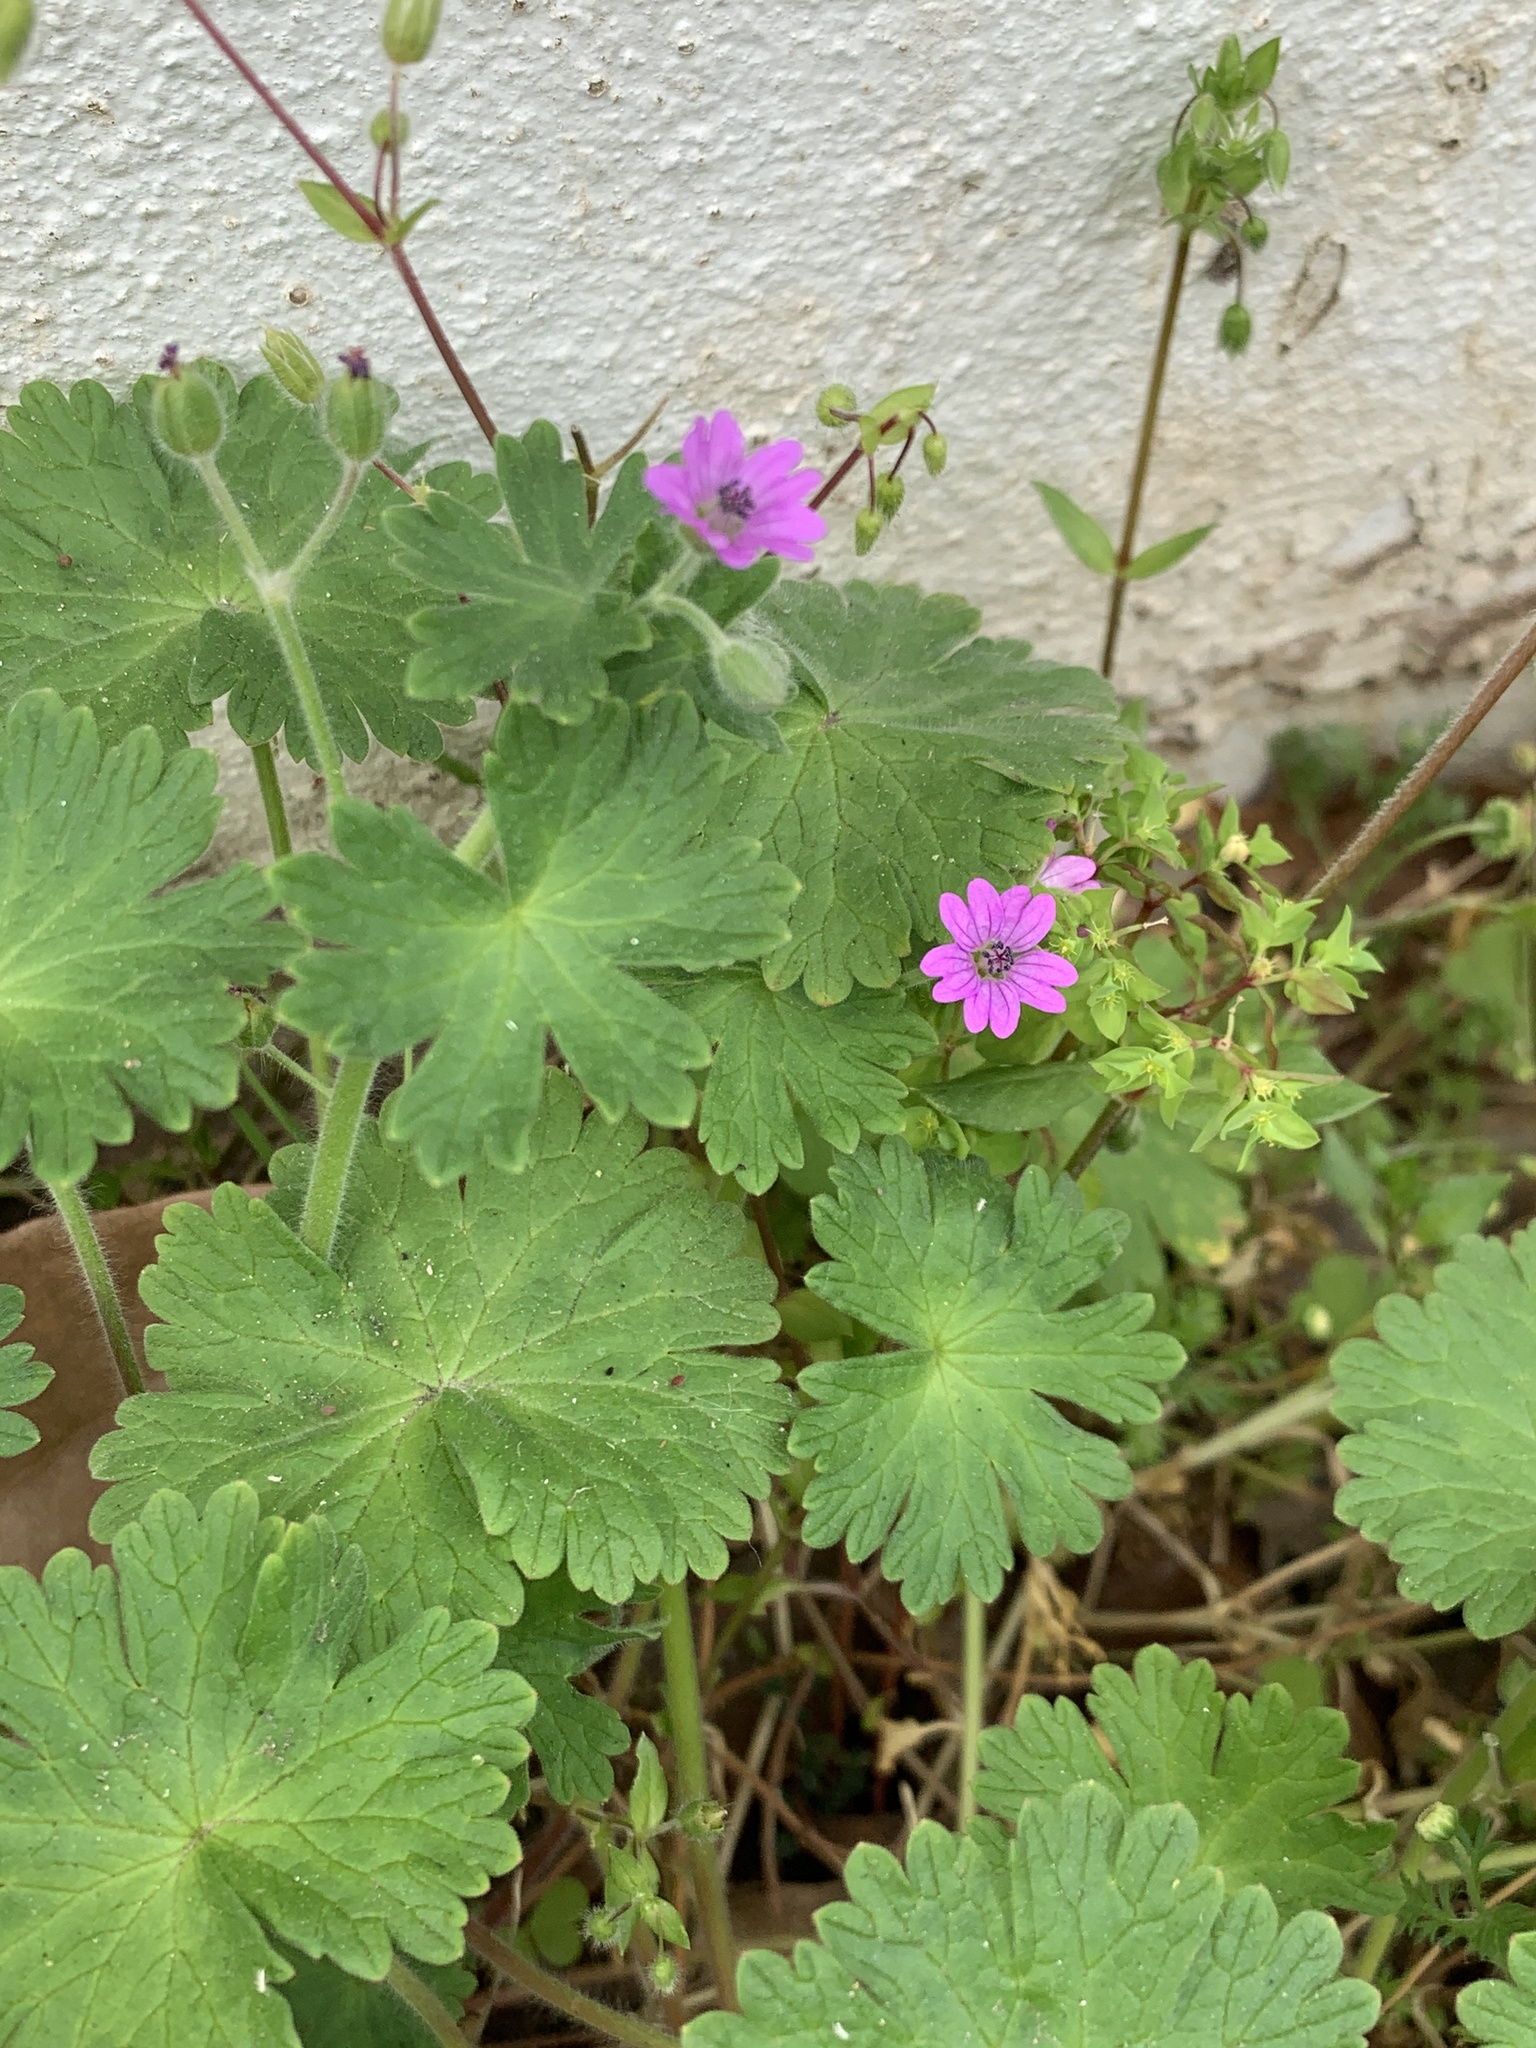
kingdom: Plantae
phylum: Tracheophyta
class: Magnoliopsida
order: Geraniales
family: Geraniaceae
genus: Geranium
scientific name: Geranium molle
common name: Dove's-foot crane's-bill
